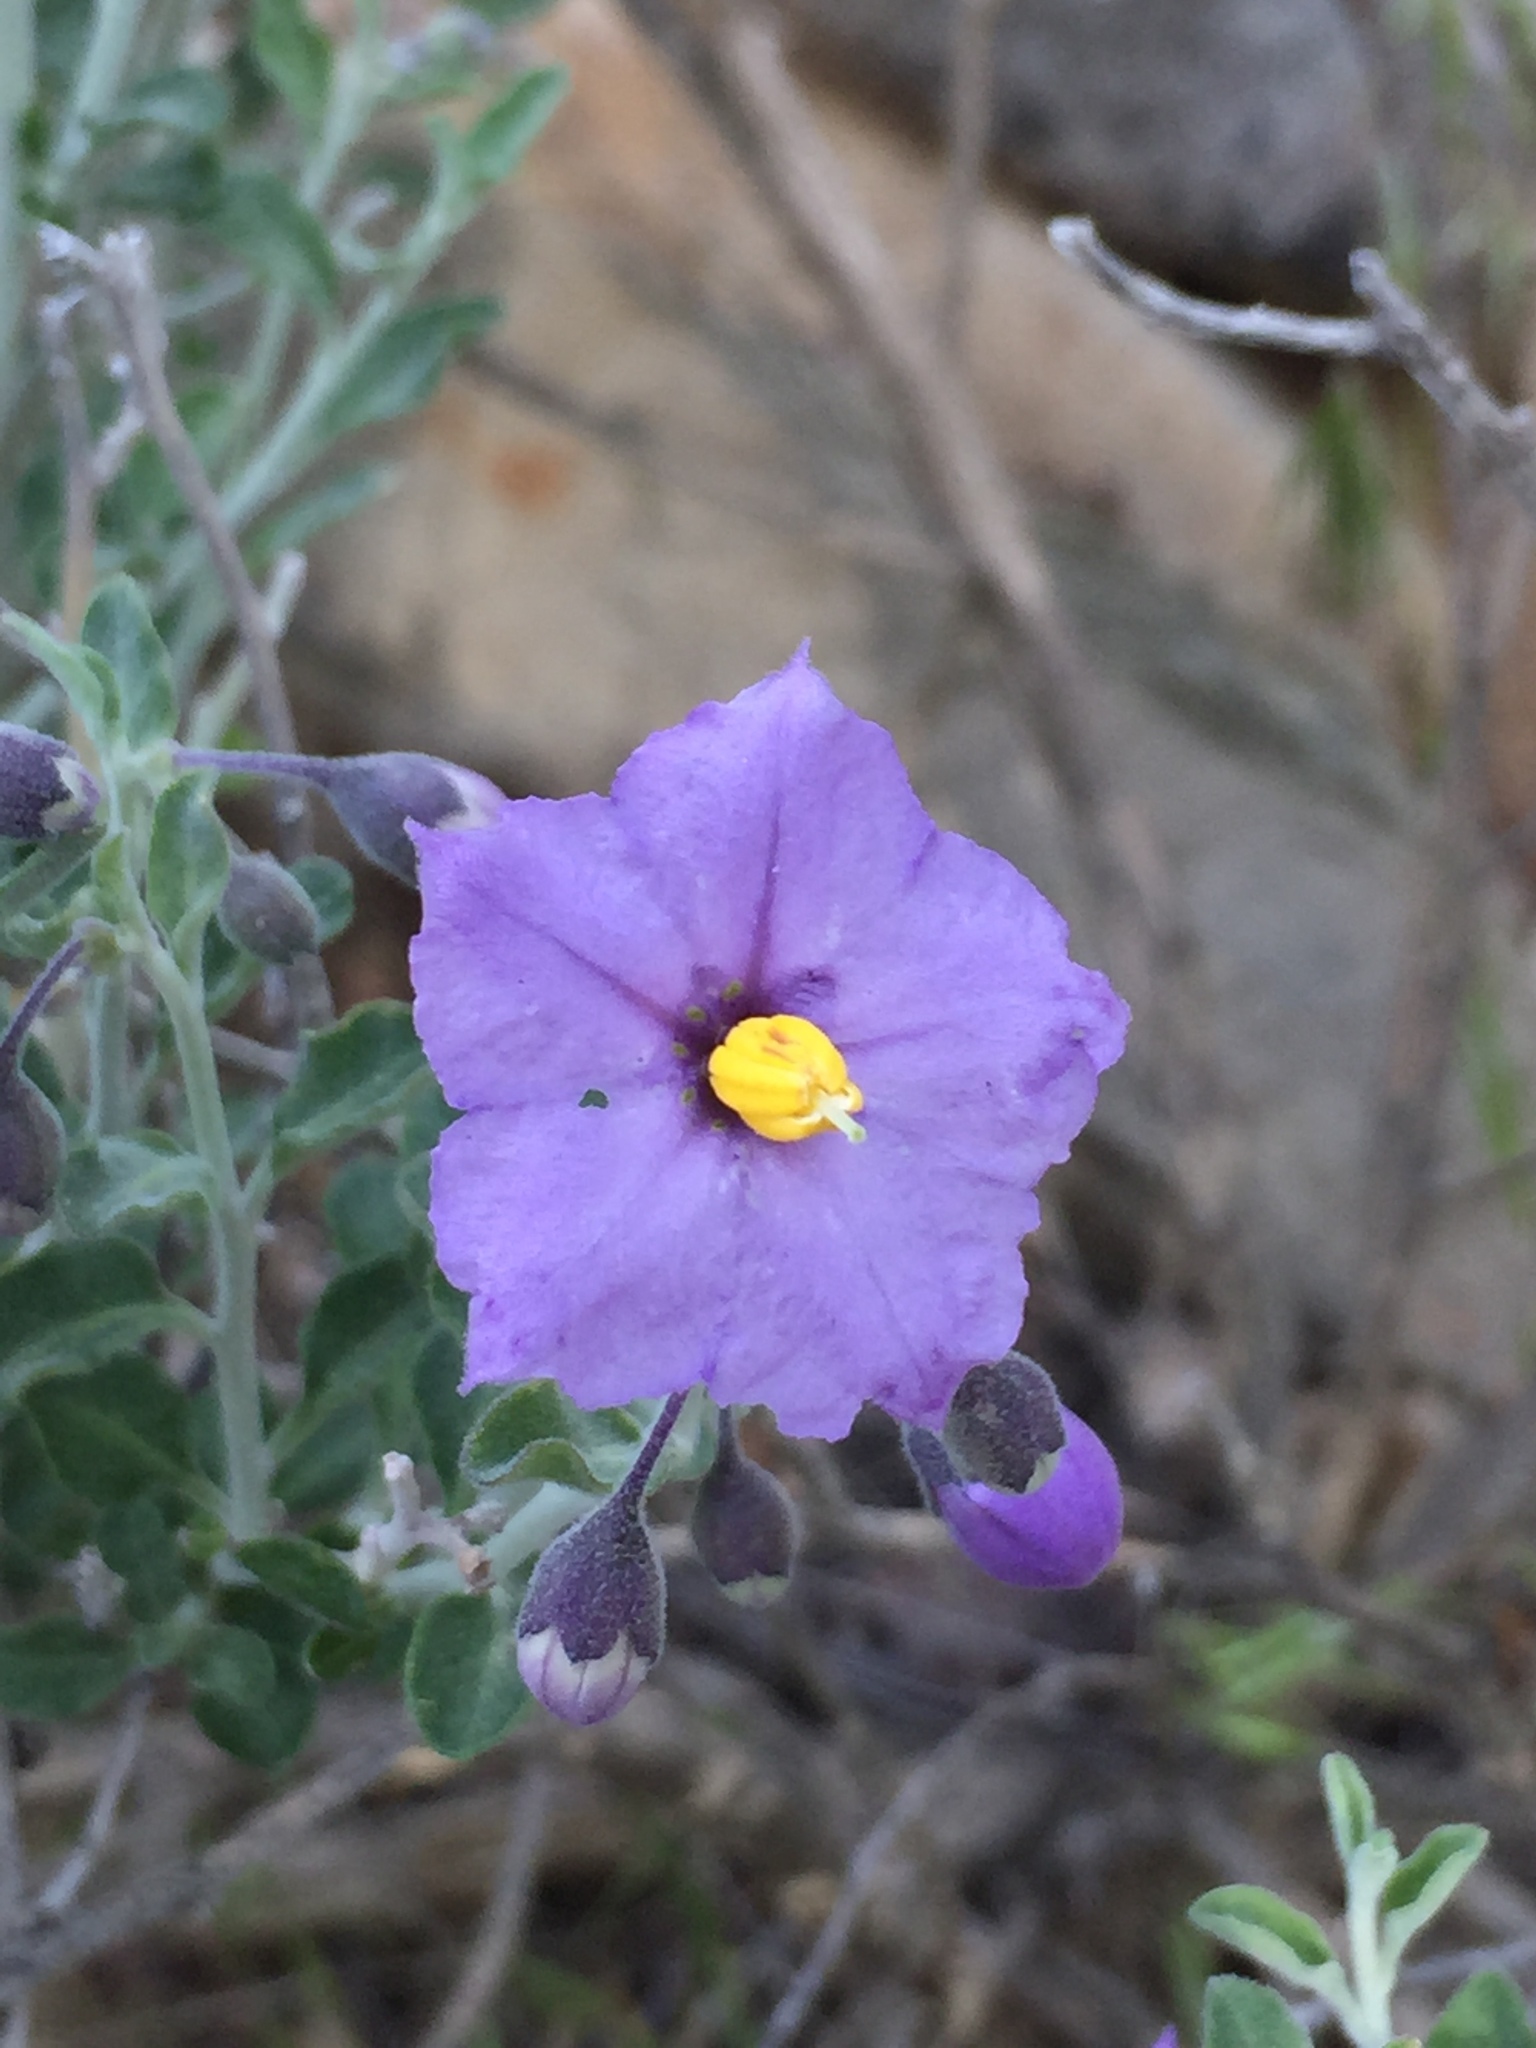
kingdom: Plantae
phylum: Tracheophyta
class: Magnoliopsida
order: Solanales
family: Solanaceae
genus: Solanum
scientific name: Solanum umbelliferum
